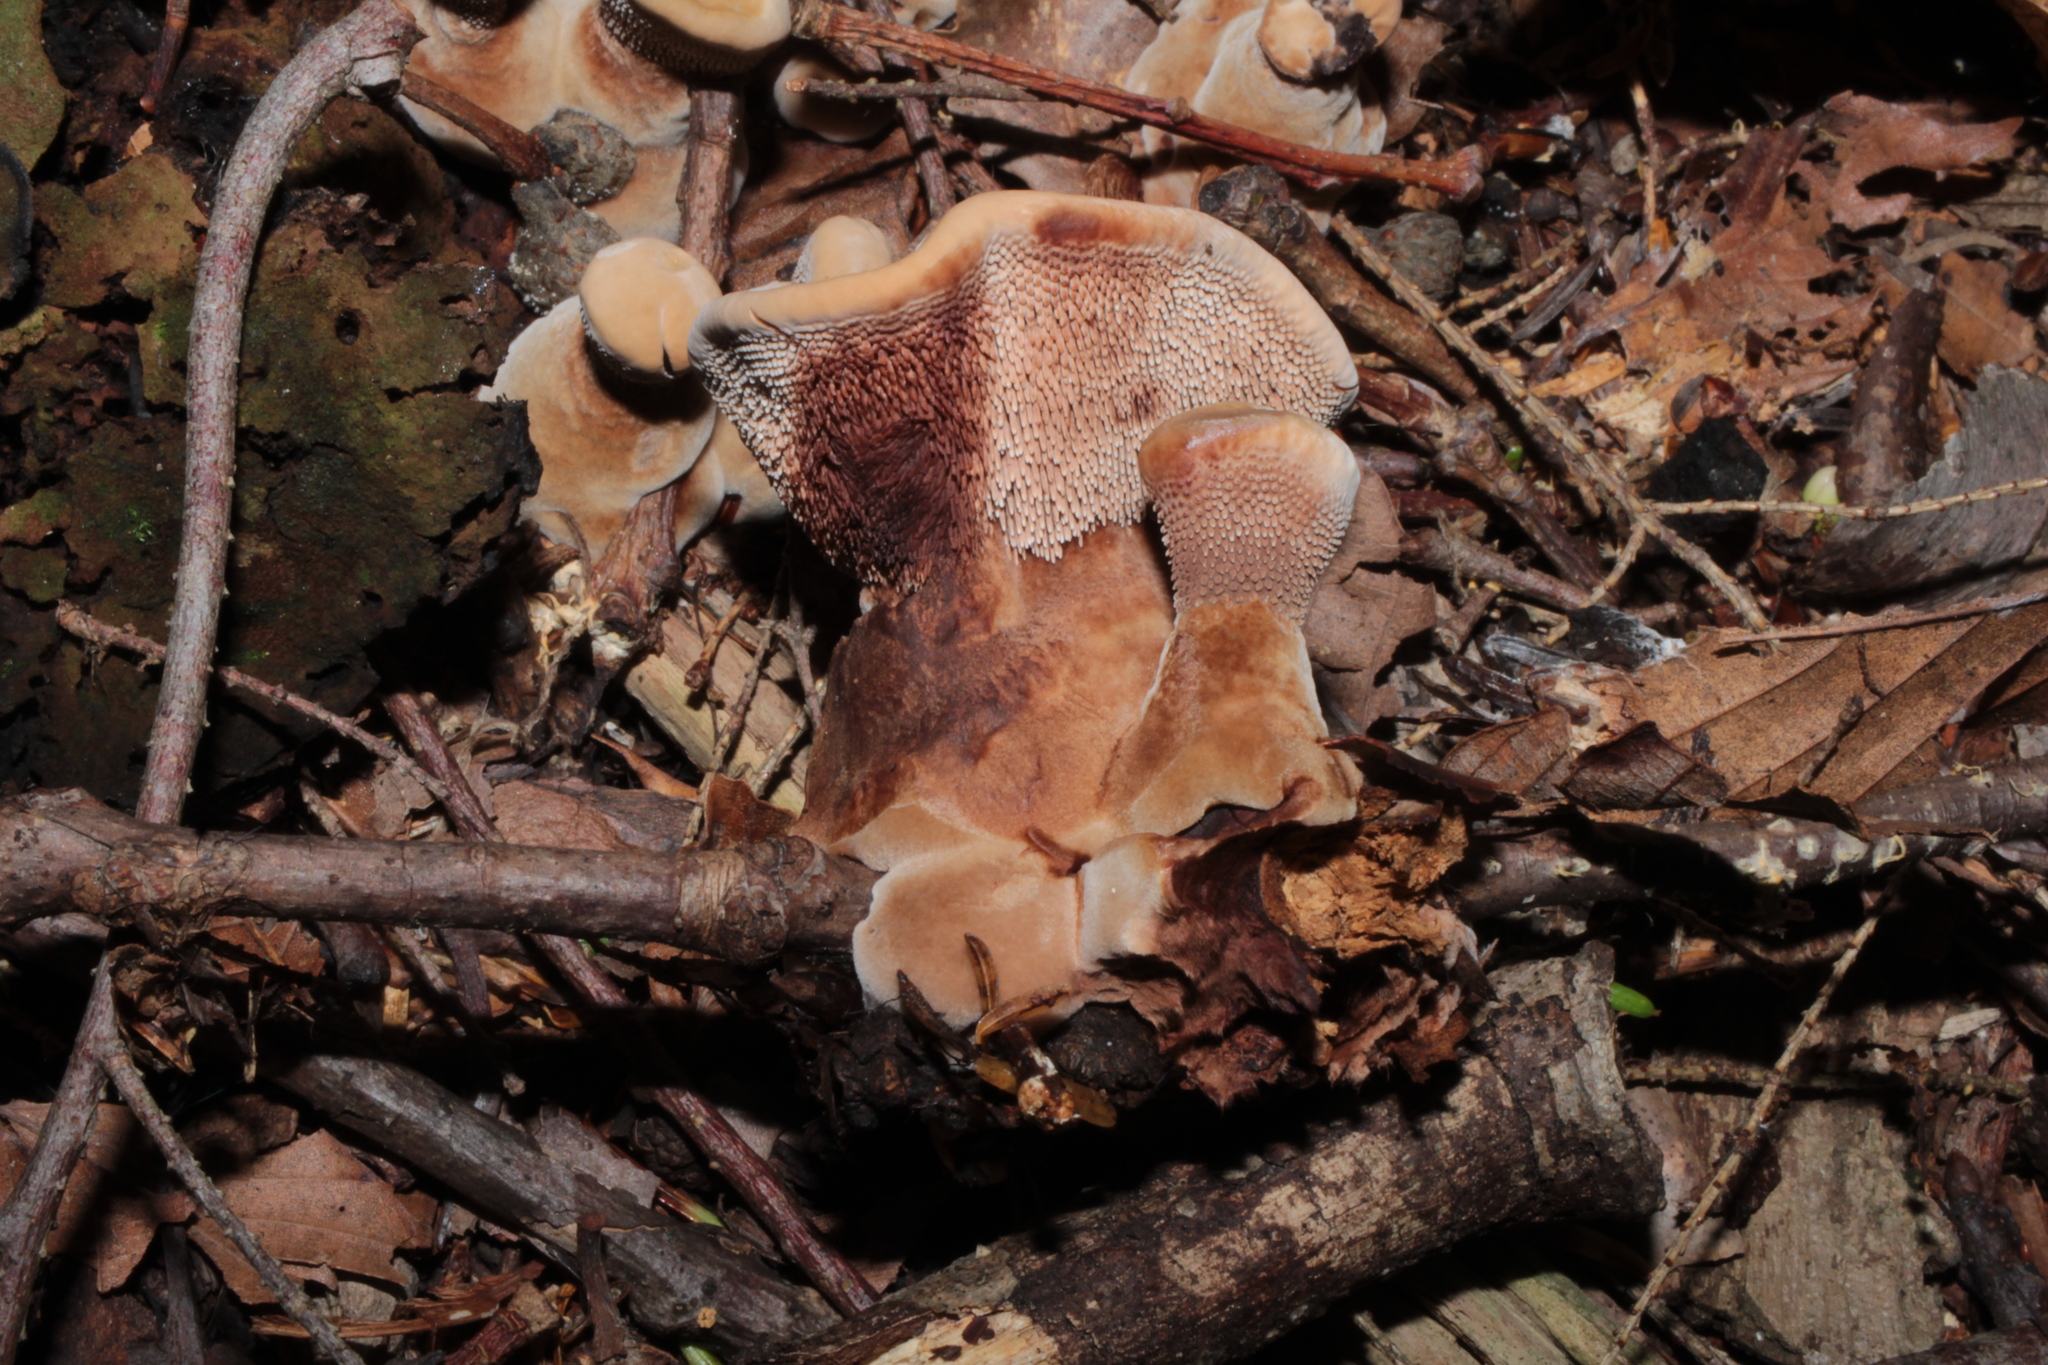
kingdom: Fungi
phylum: Basidiomycota
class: Agaricomycetes
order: Thelephorales
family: Bankeraceae
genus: Hydnellum
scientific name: Hydnellum ferrugineum
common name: Mealy tooth
